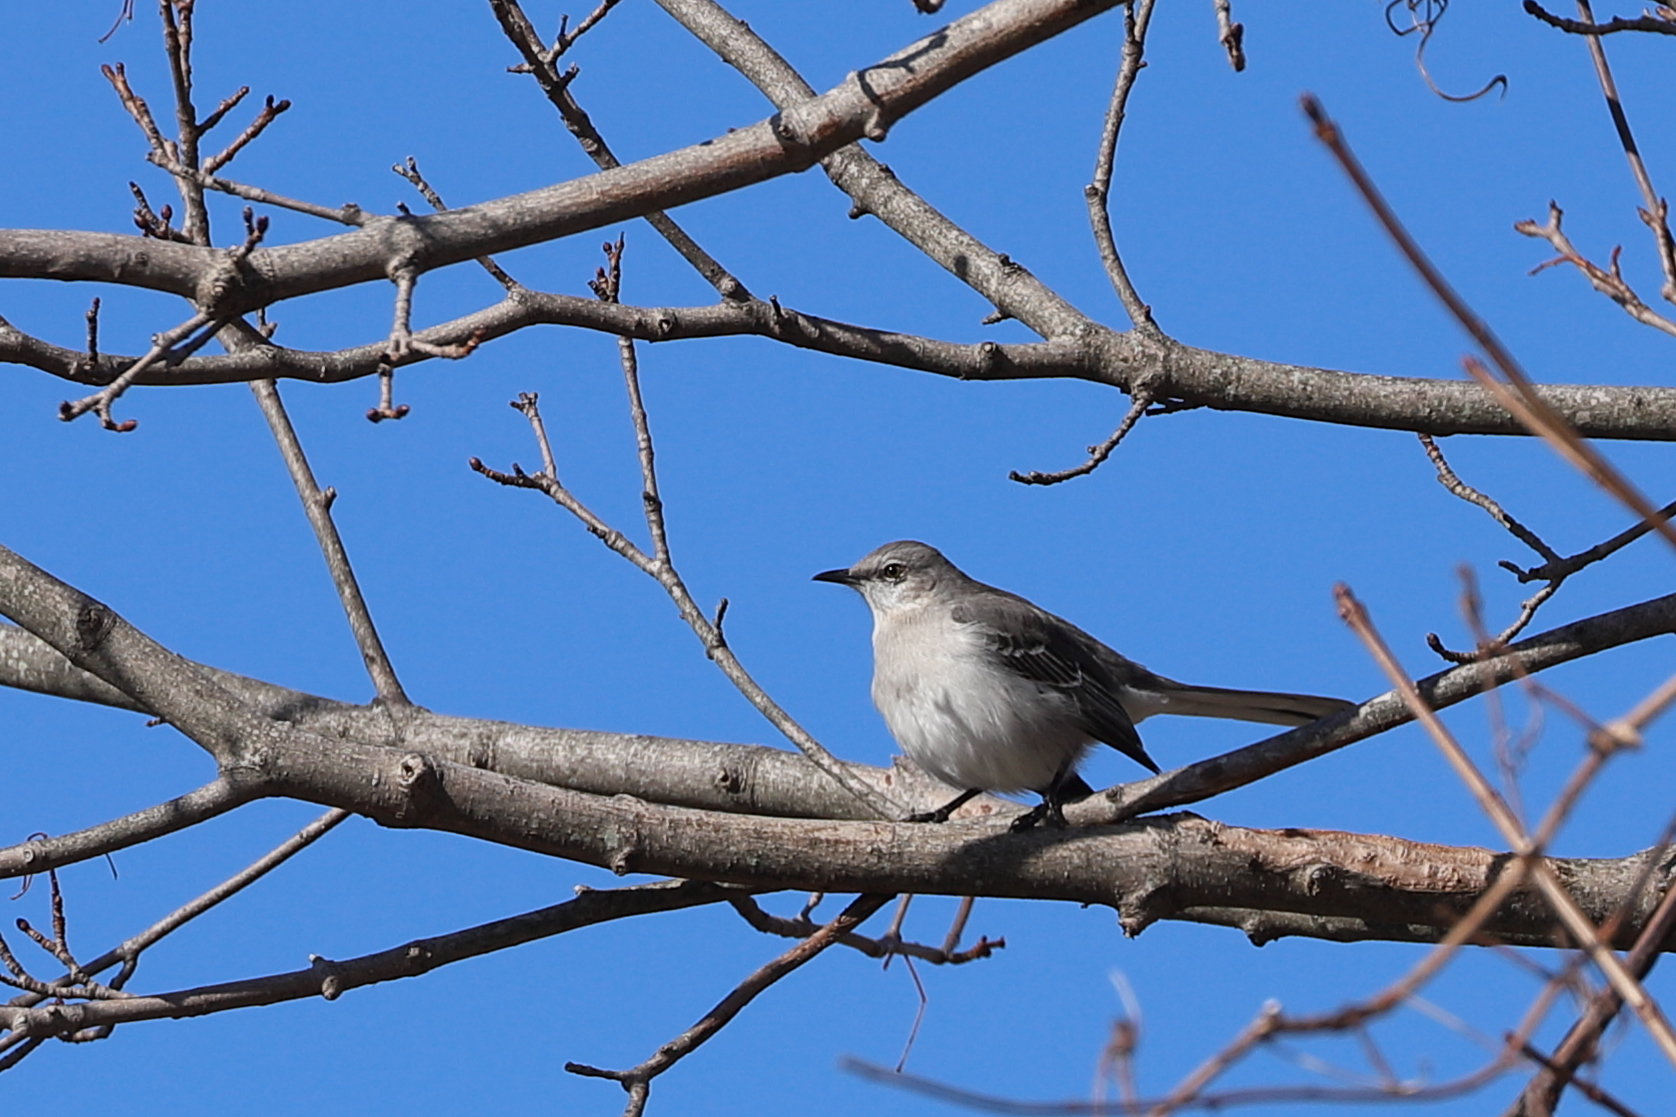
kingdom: Animalia
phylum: Chordata
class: Aves
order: Passeriformes
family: Mimidae
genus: Mimus
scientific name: Mimus polyglottos
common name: Northern mockingbird
